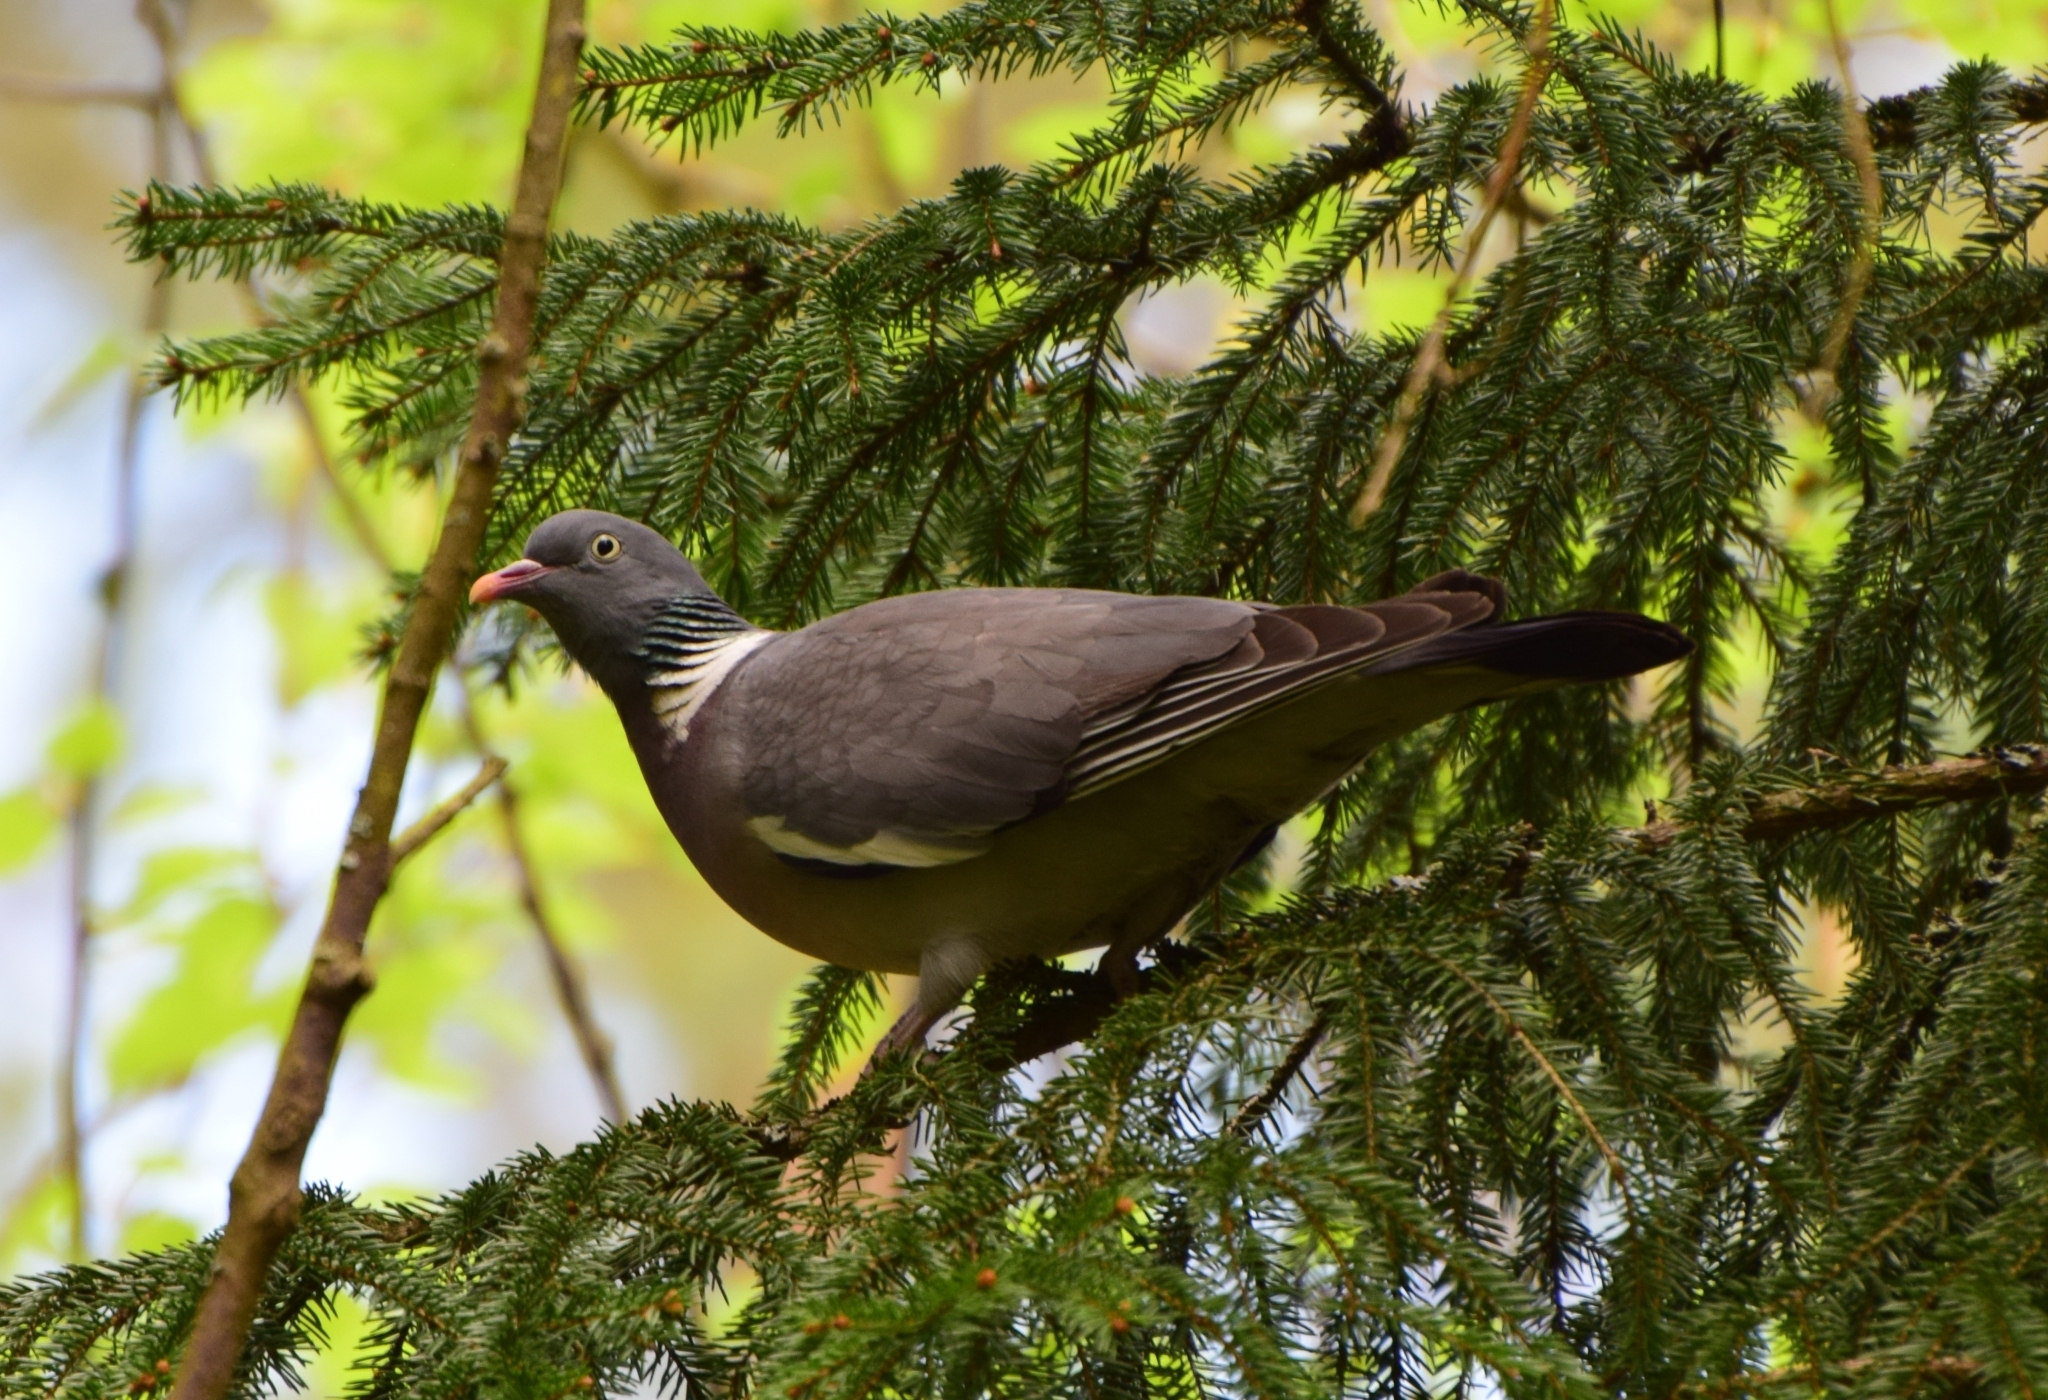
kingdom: Animalia
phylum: Chordata
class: Aves
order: Columbiformes
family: Columbidae
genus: Columba
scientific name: Columba palumbus
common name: Common wood pigeon
